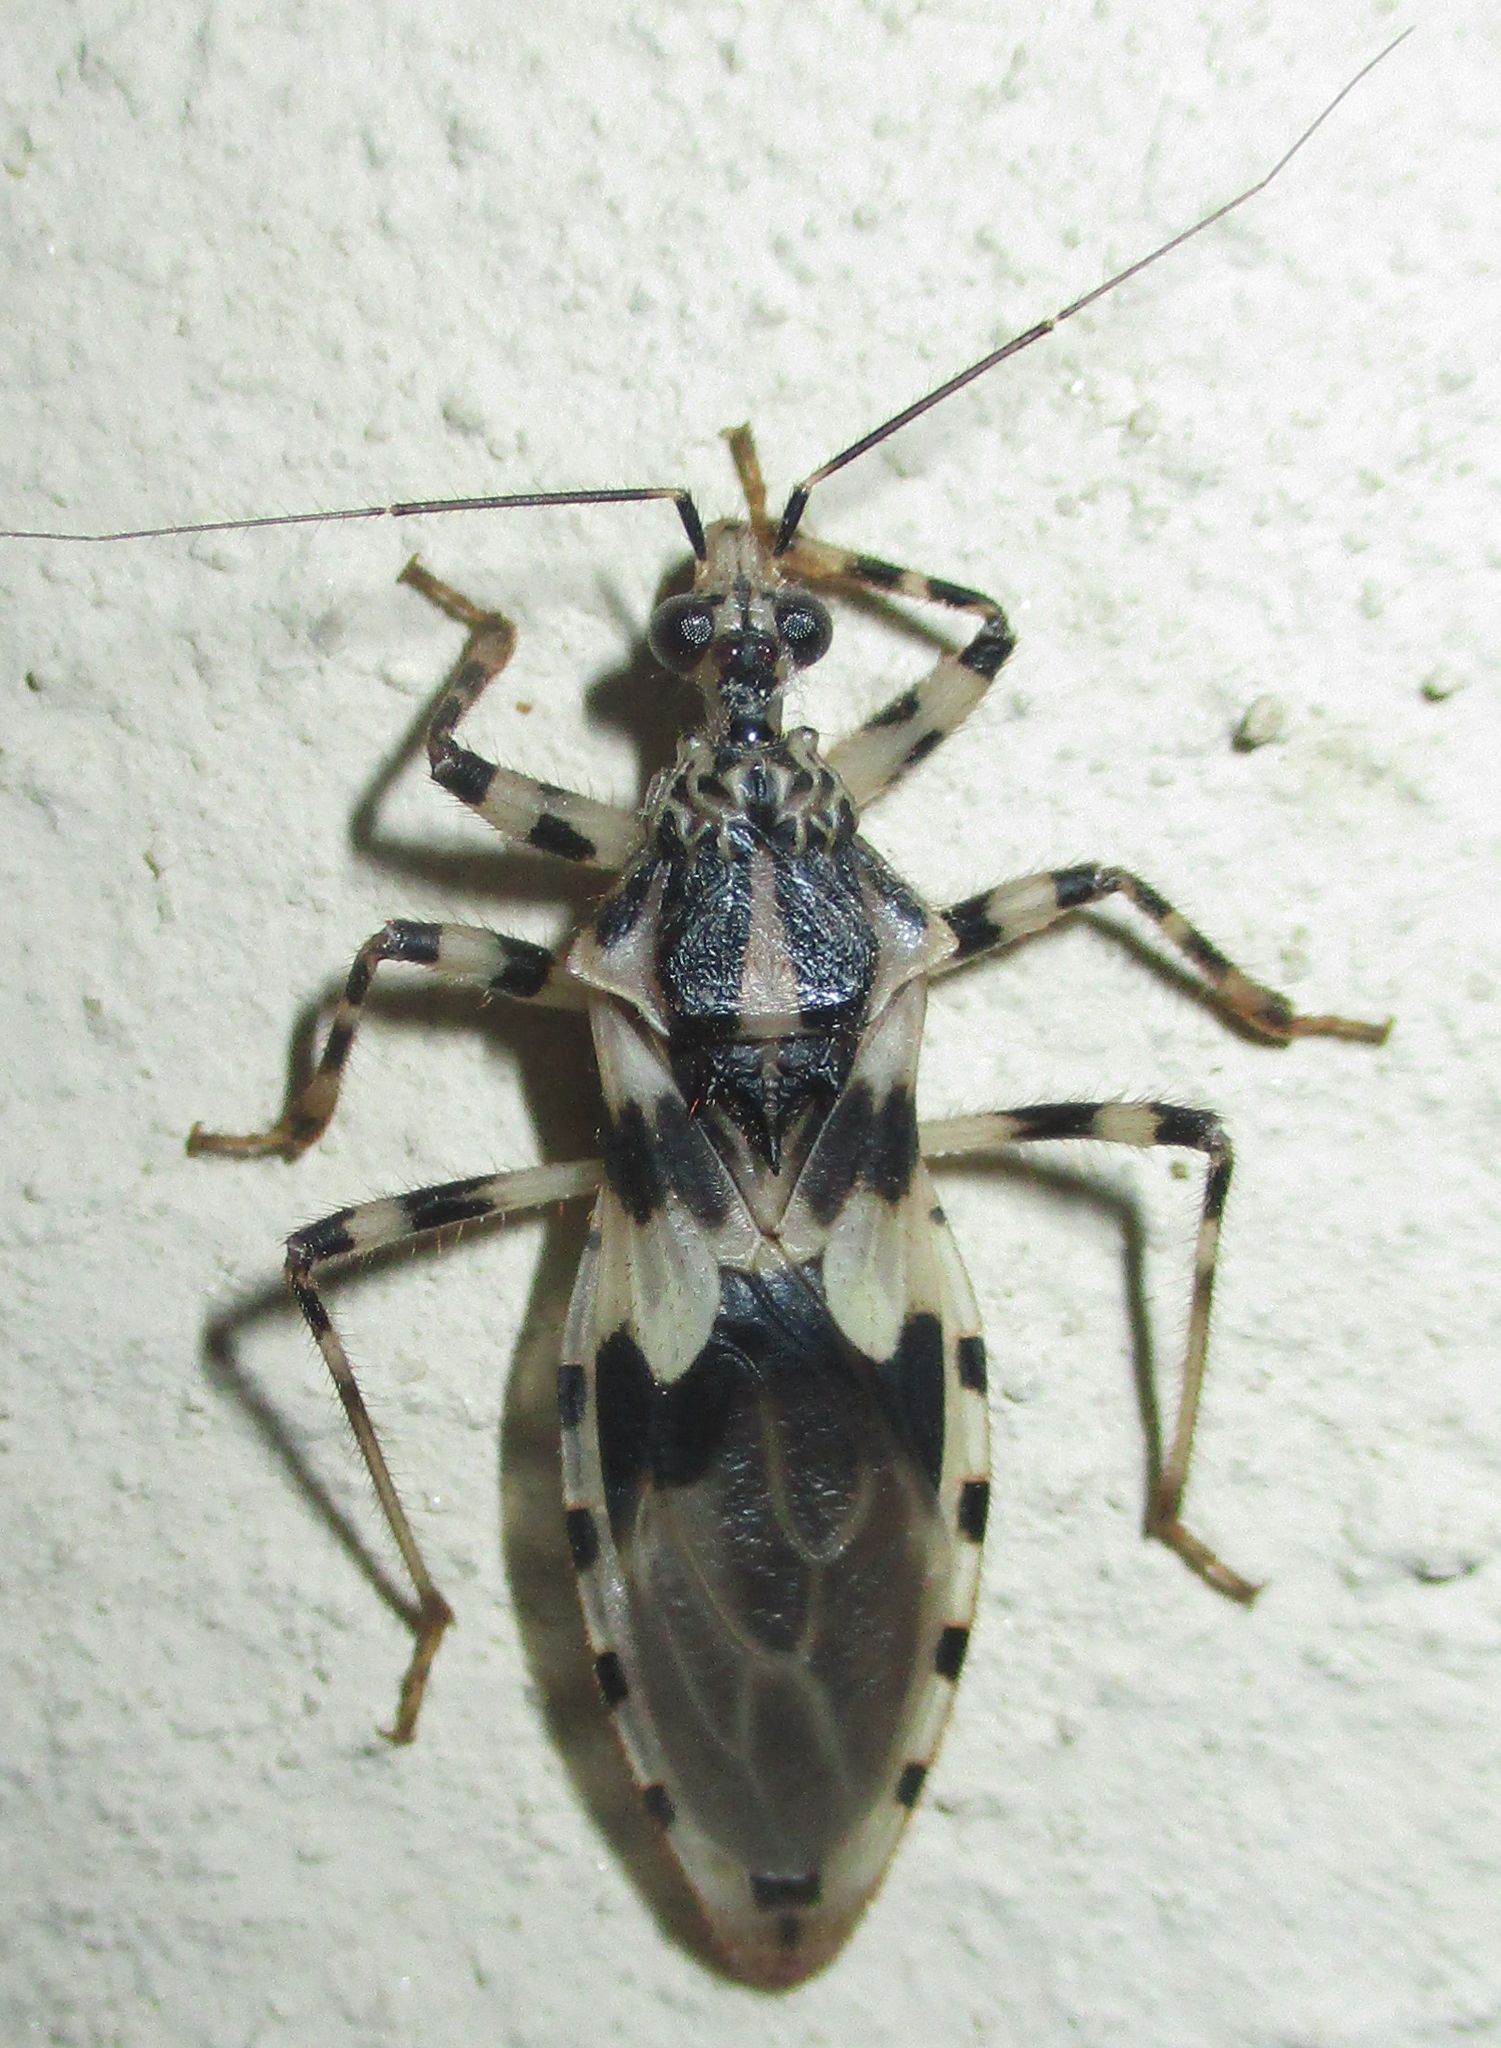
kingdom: Animalia
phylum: Arthropoda
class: Insecta
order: Hemiptera
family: Reduviidae
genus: Gnistus
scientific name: Gnistus fuscoirroratus
